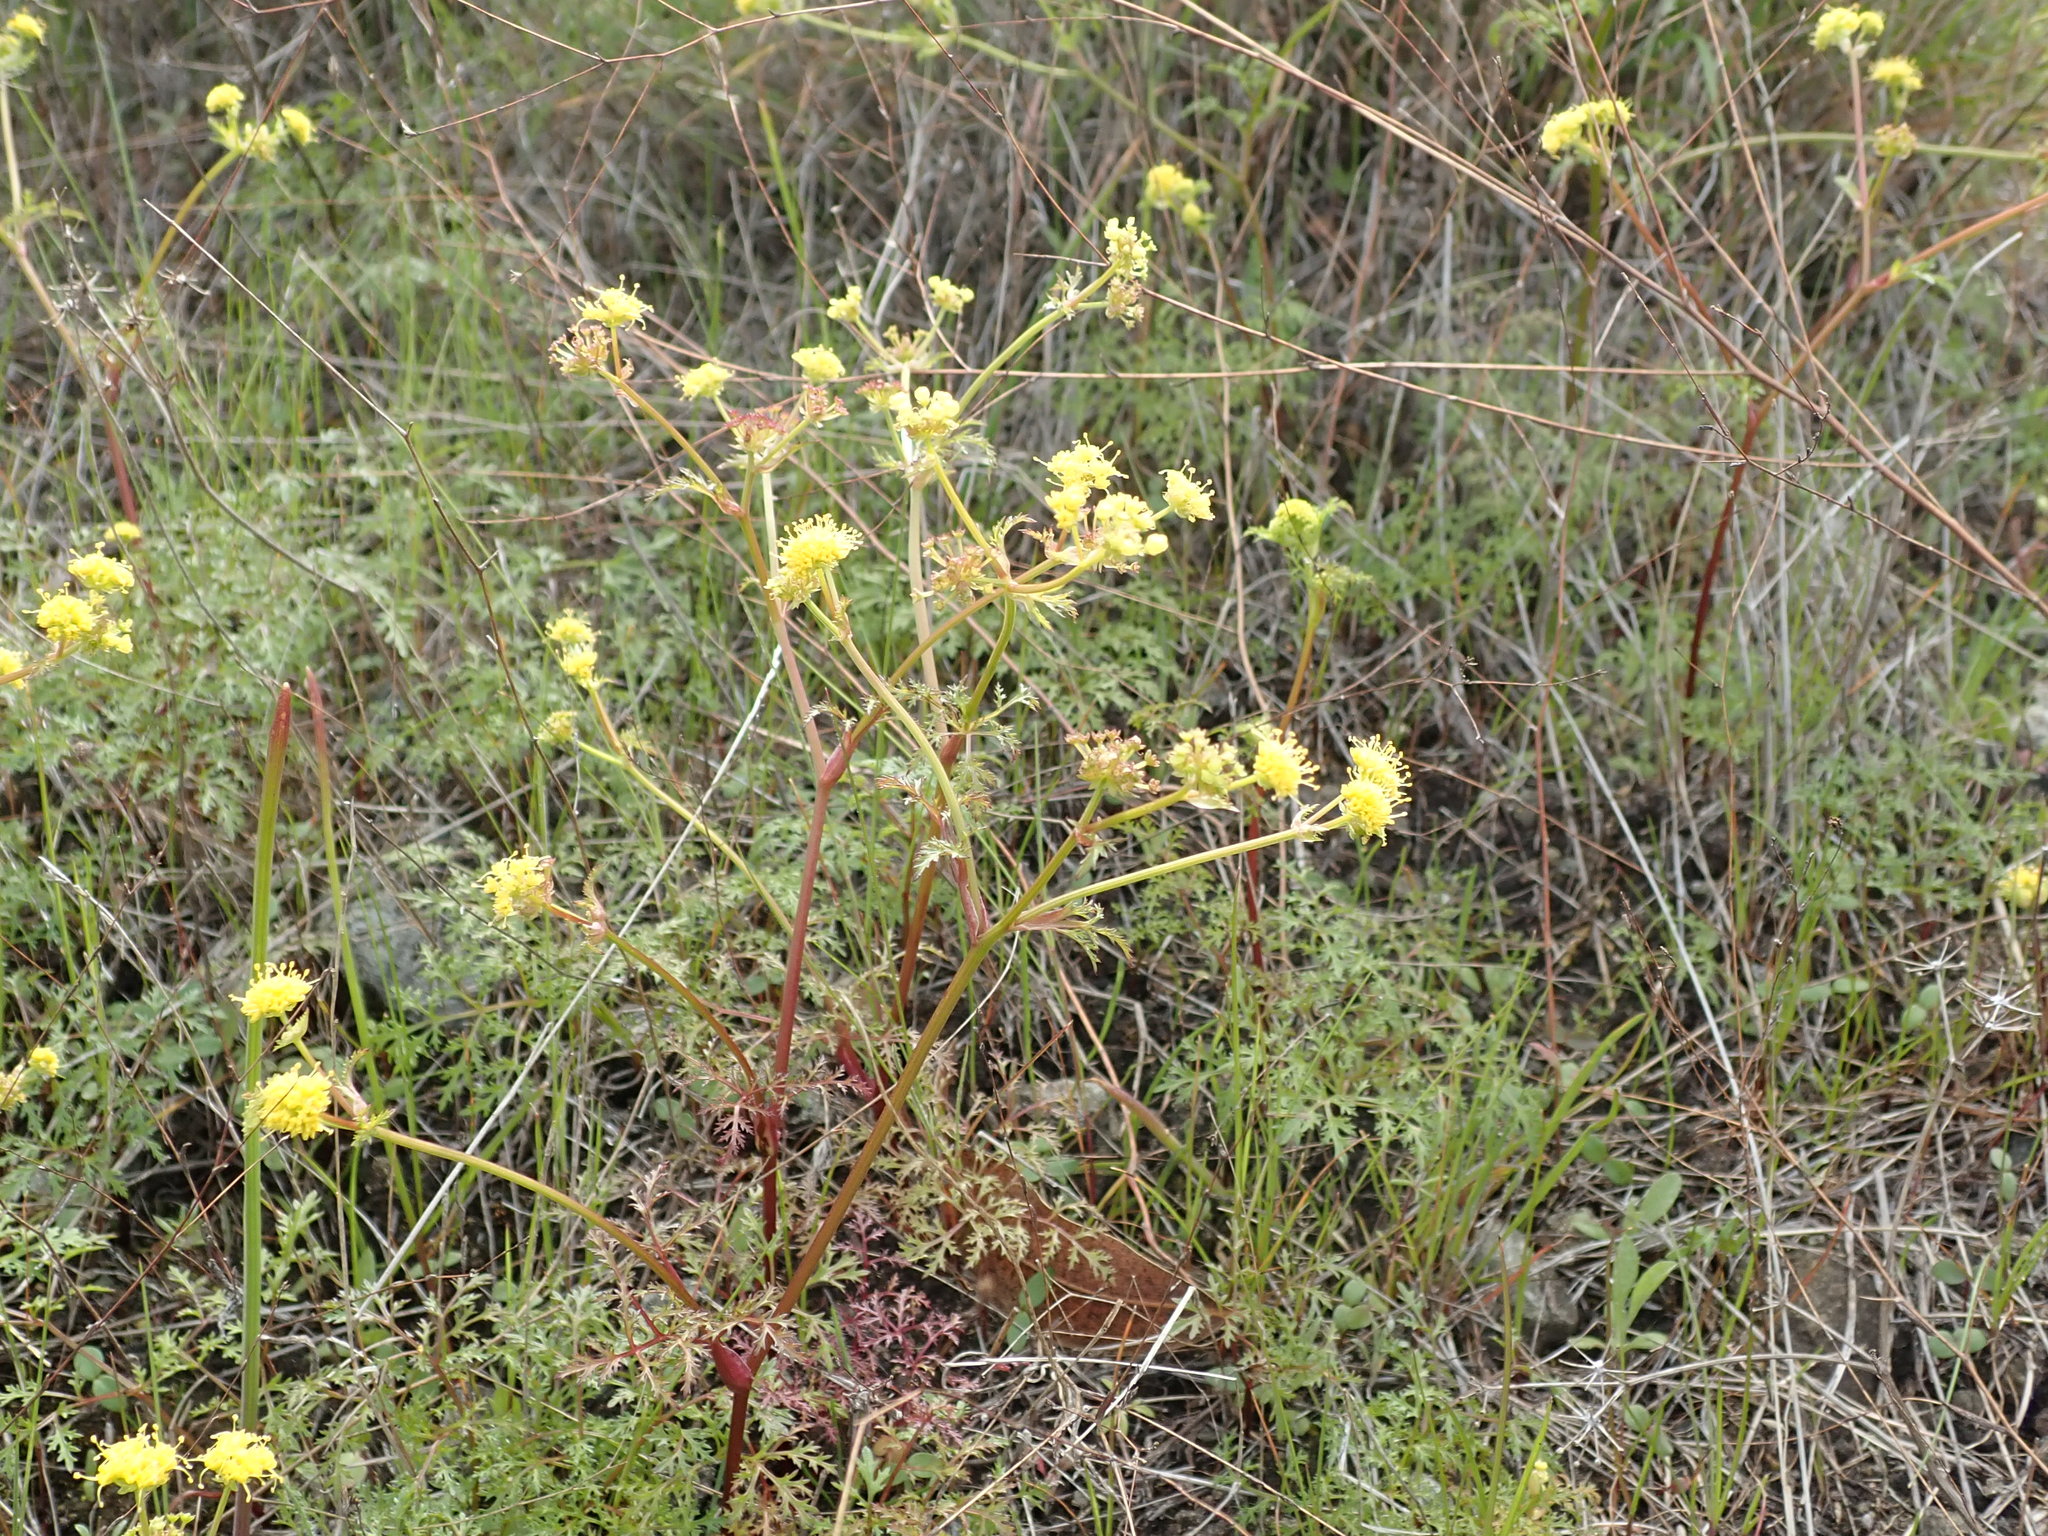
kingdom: Plantae
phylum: Tracheophyta
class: Magnoliopsida
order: Apiales
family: Apiaceae
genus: Sanicula
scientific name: Sanicula tuberosa
